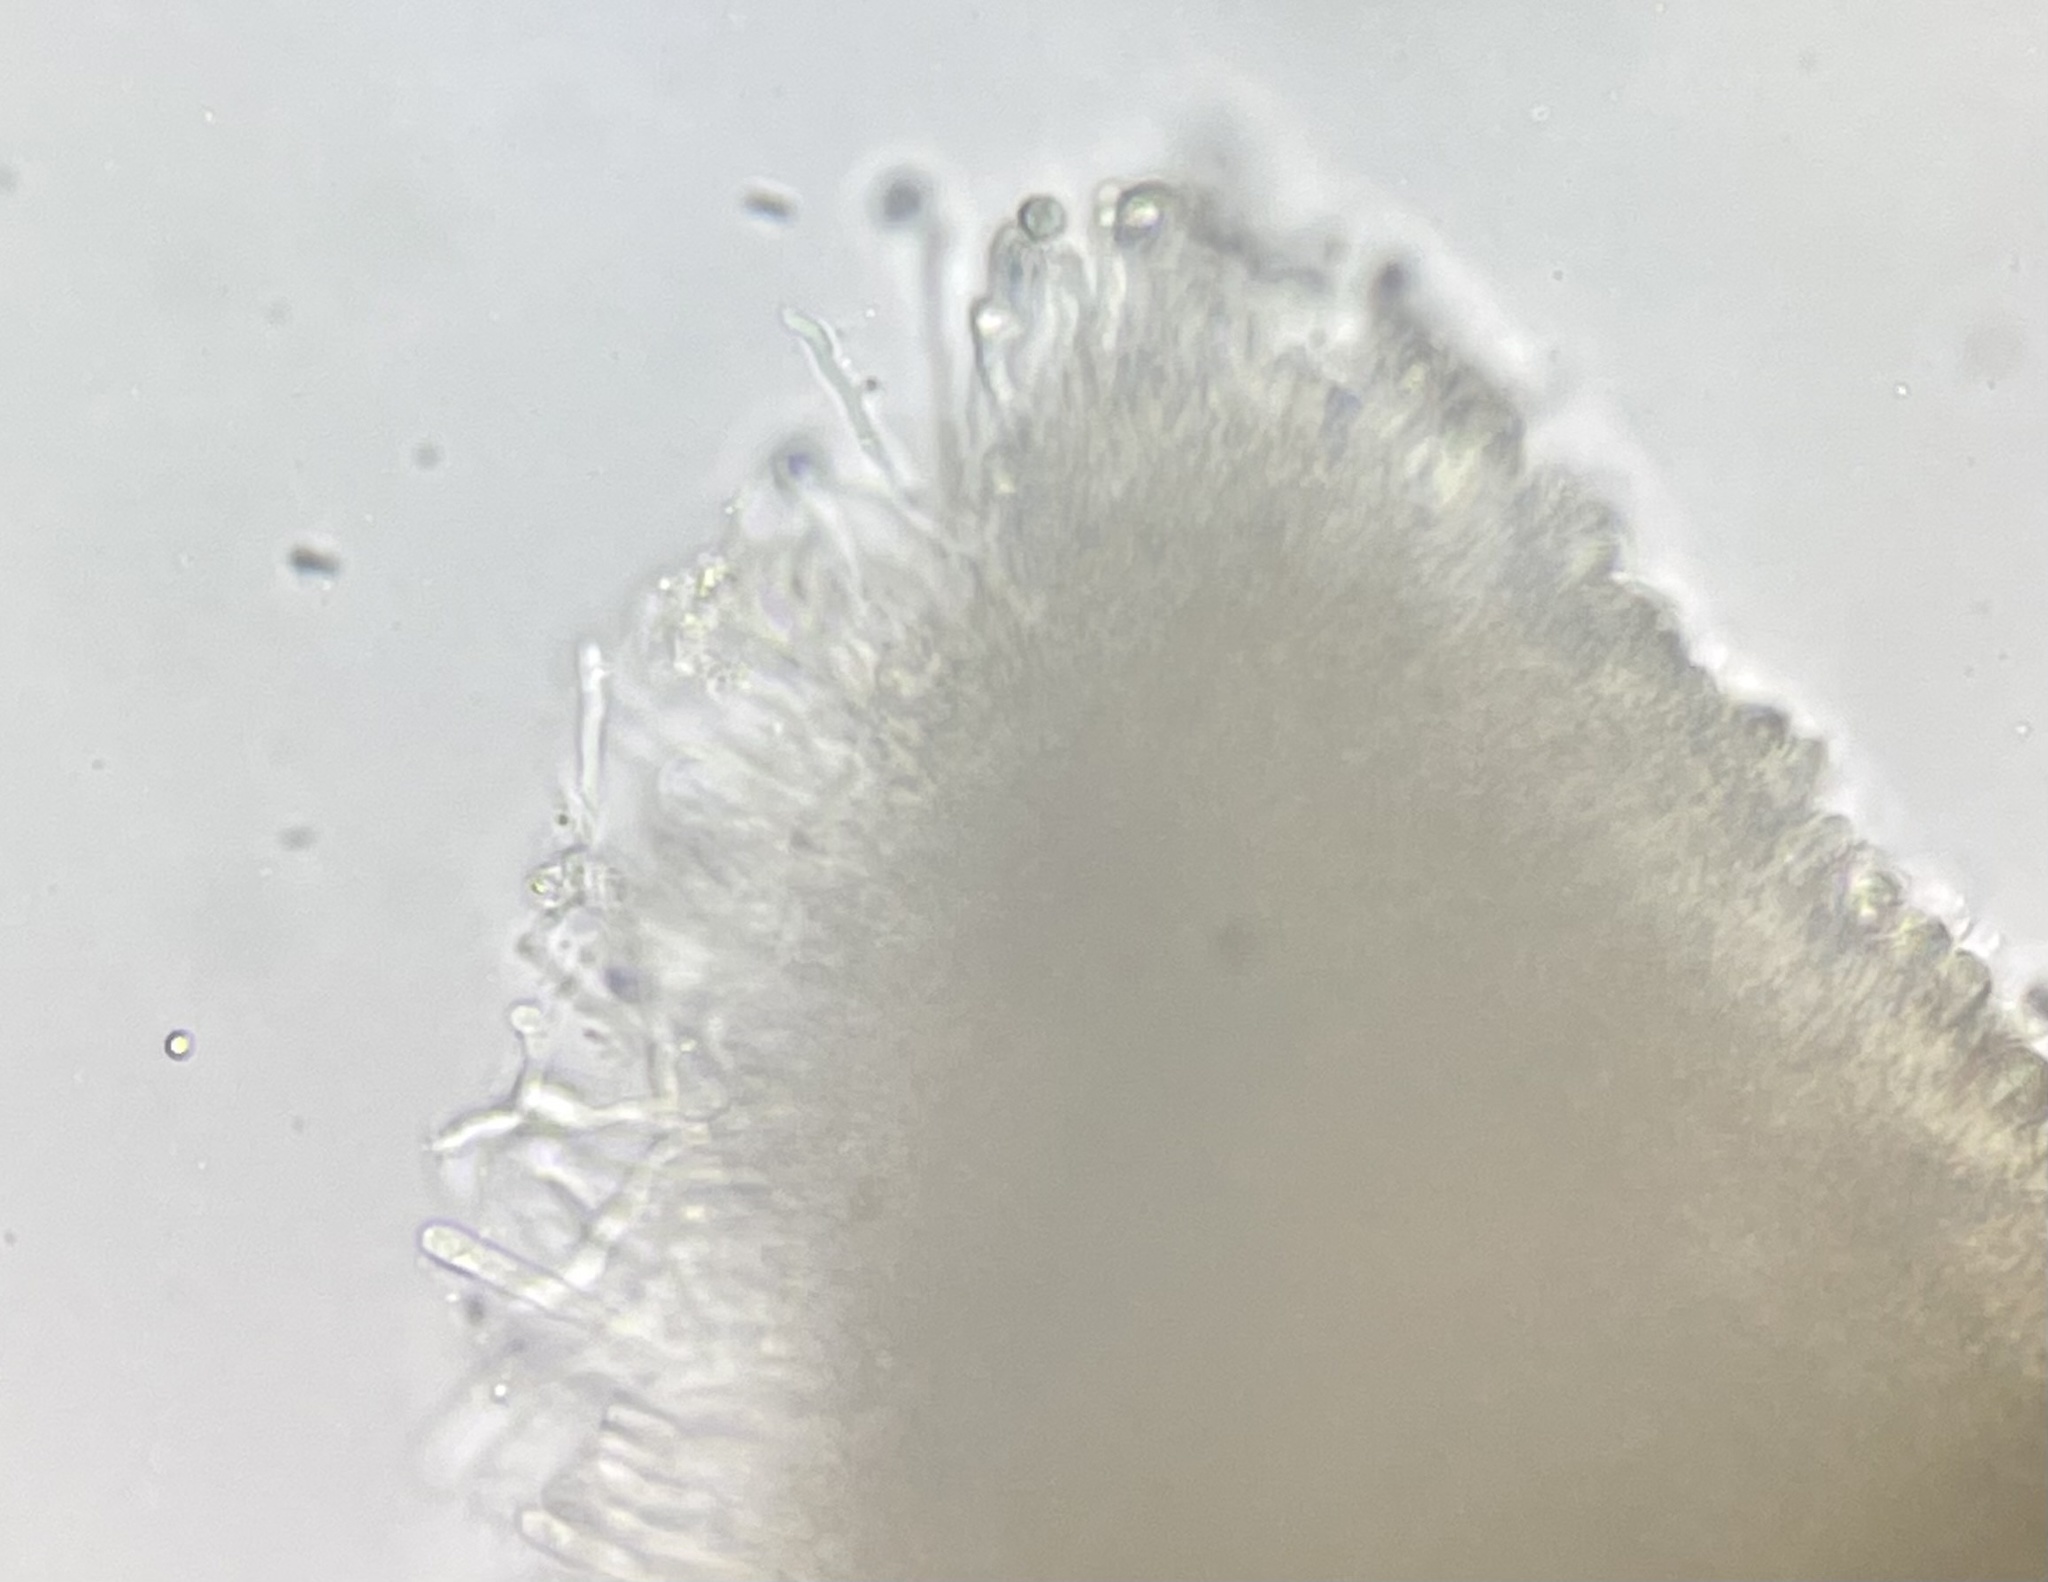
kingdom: Fungi
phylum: Basidiomycota
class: Agaricomycetes
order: Agaricales
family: Hygrophoraceae
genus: Cuphophyllus
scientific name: Cuphophyllus pratensis
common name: Meadow waxcap
